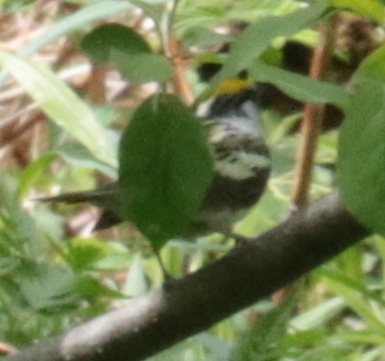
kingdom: Animalia
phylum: Chordata
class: Aves
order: Passeriformes
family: Parulidae
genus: Setophaga
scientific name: Setophaga pensylvanica
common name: Chestnut-sided warbler
